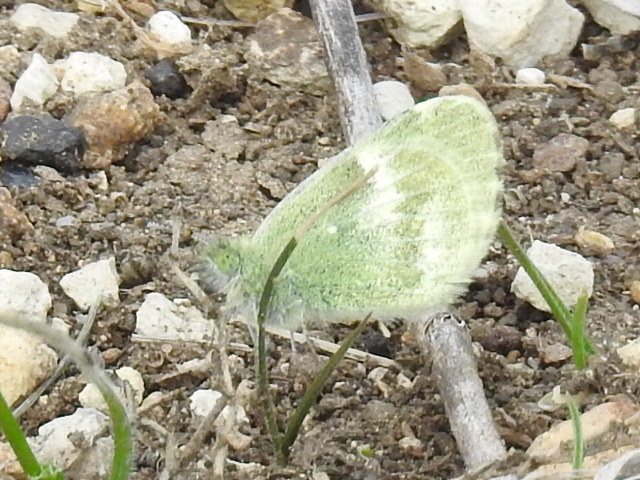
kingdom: Animalia
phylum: Arthropoda
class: Insecta
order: Lepidoptera
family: Pieridae
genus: Nathalis
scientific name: Nathalis iole
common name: Dainty sulphur
